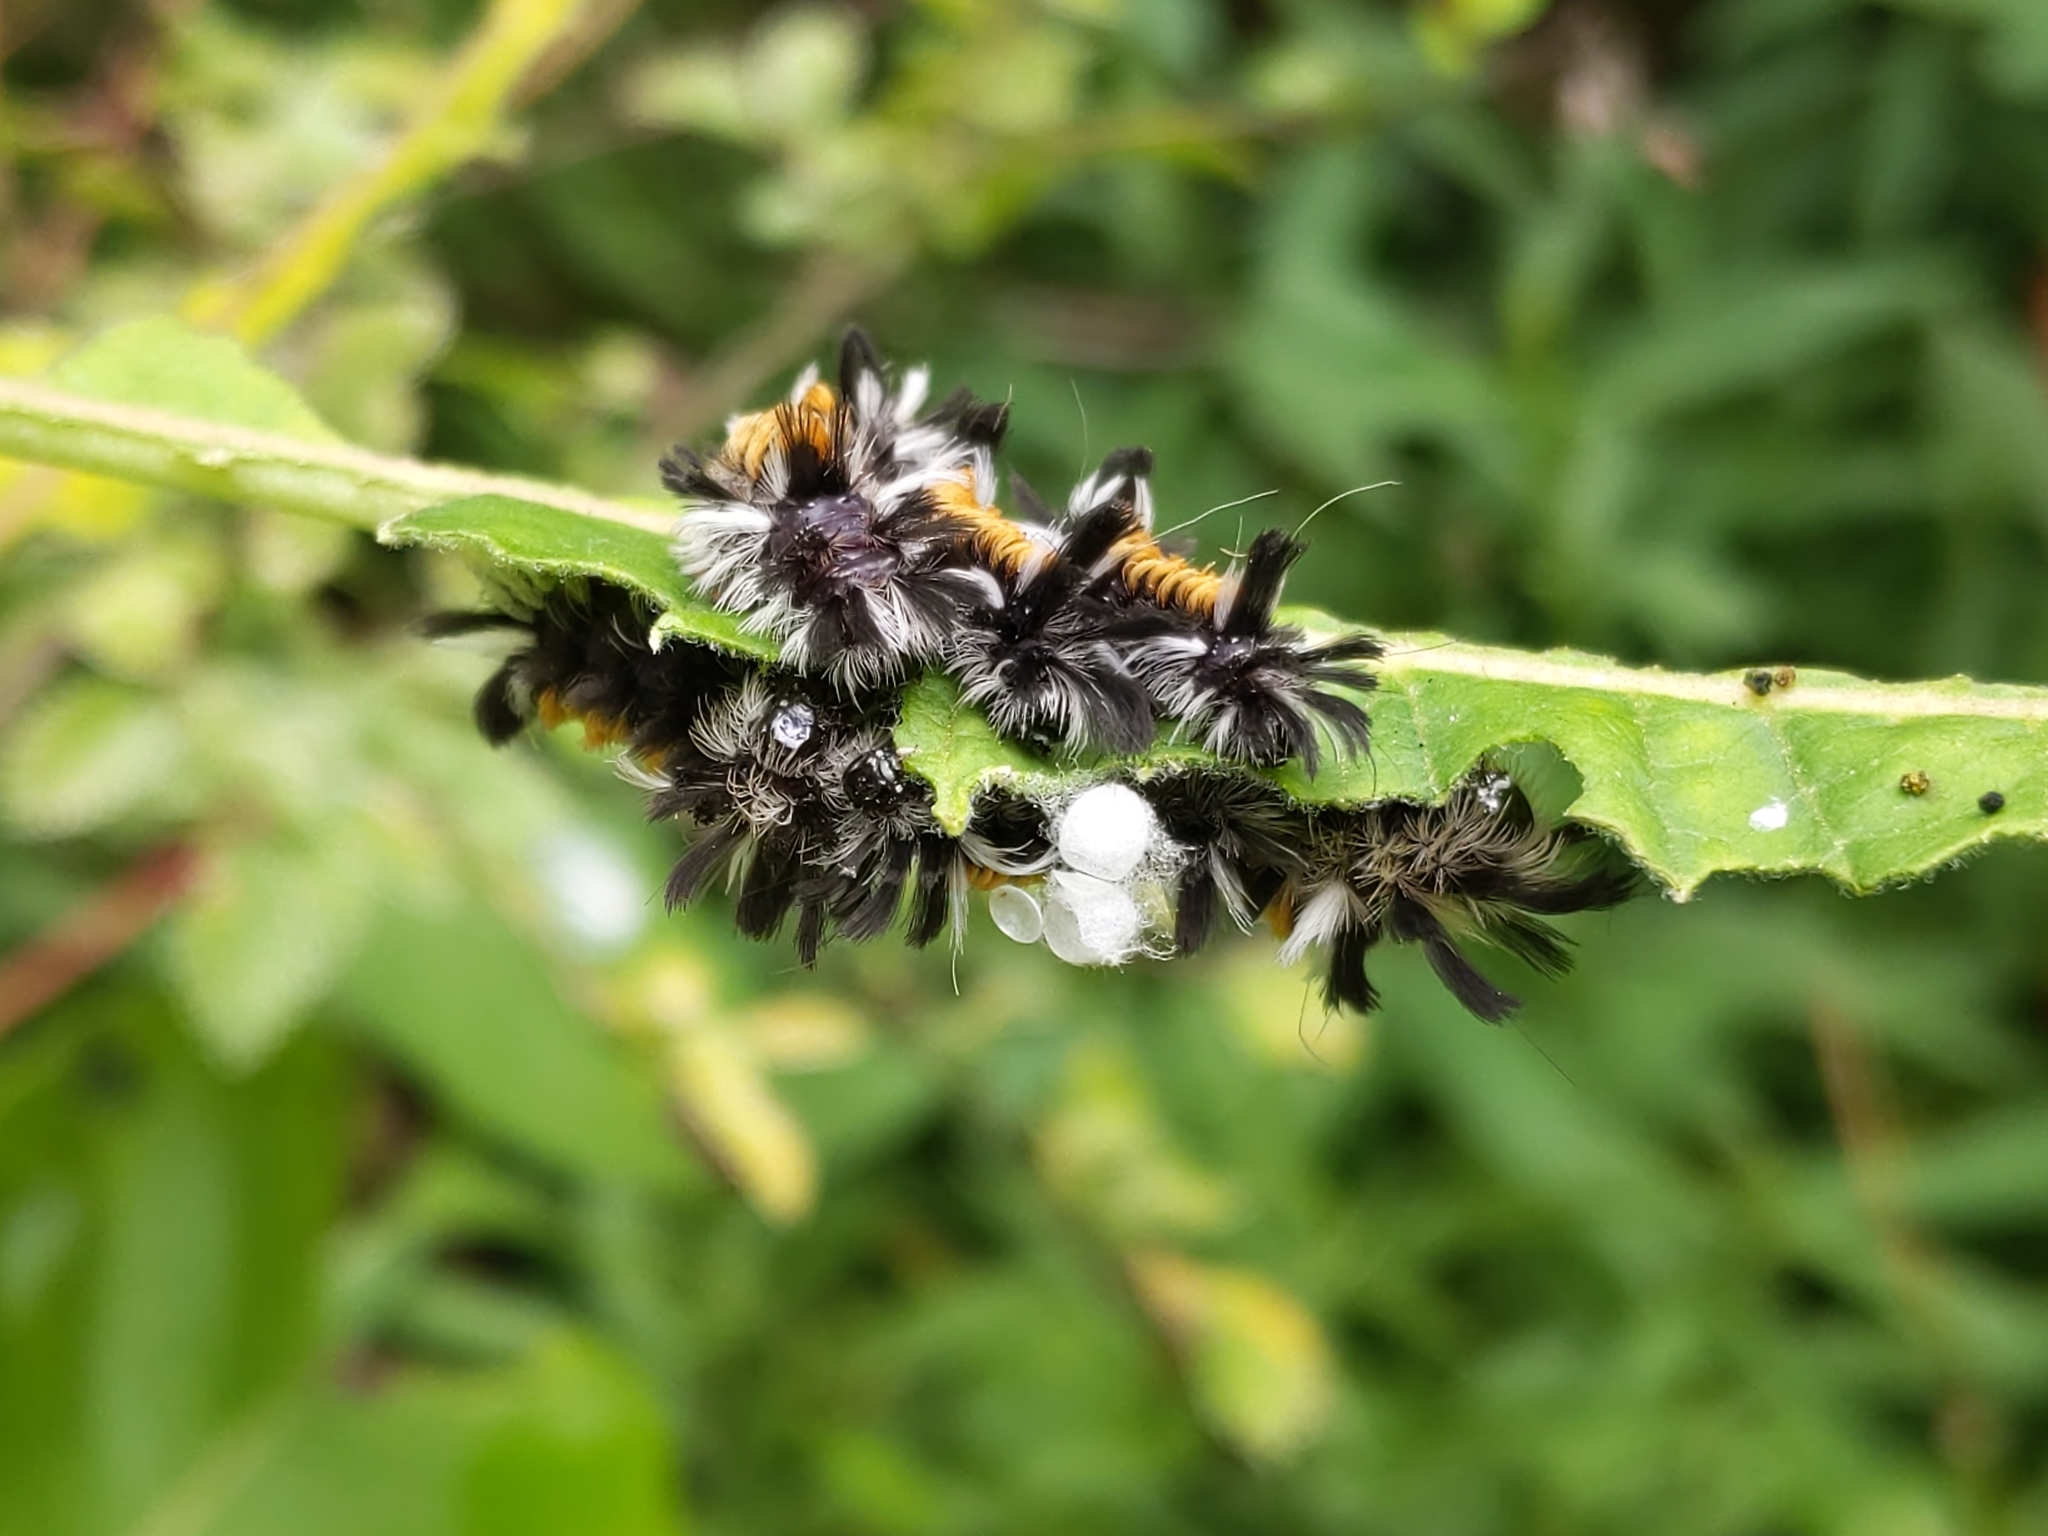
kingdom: Animalia
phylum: Arthropoda
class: Insecta
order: Lepidoptera
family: Erebidae
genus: Euchaetes
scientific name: Euchaetes egle
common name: Milkweed tussock moth
